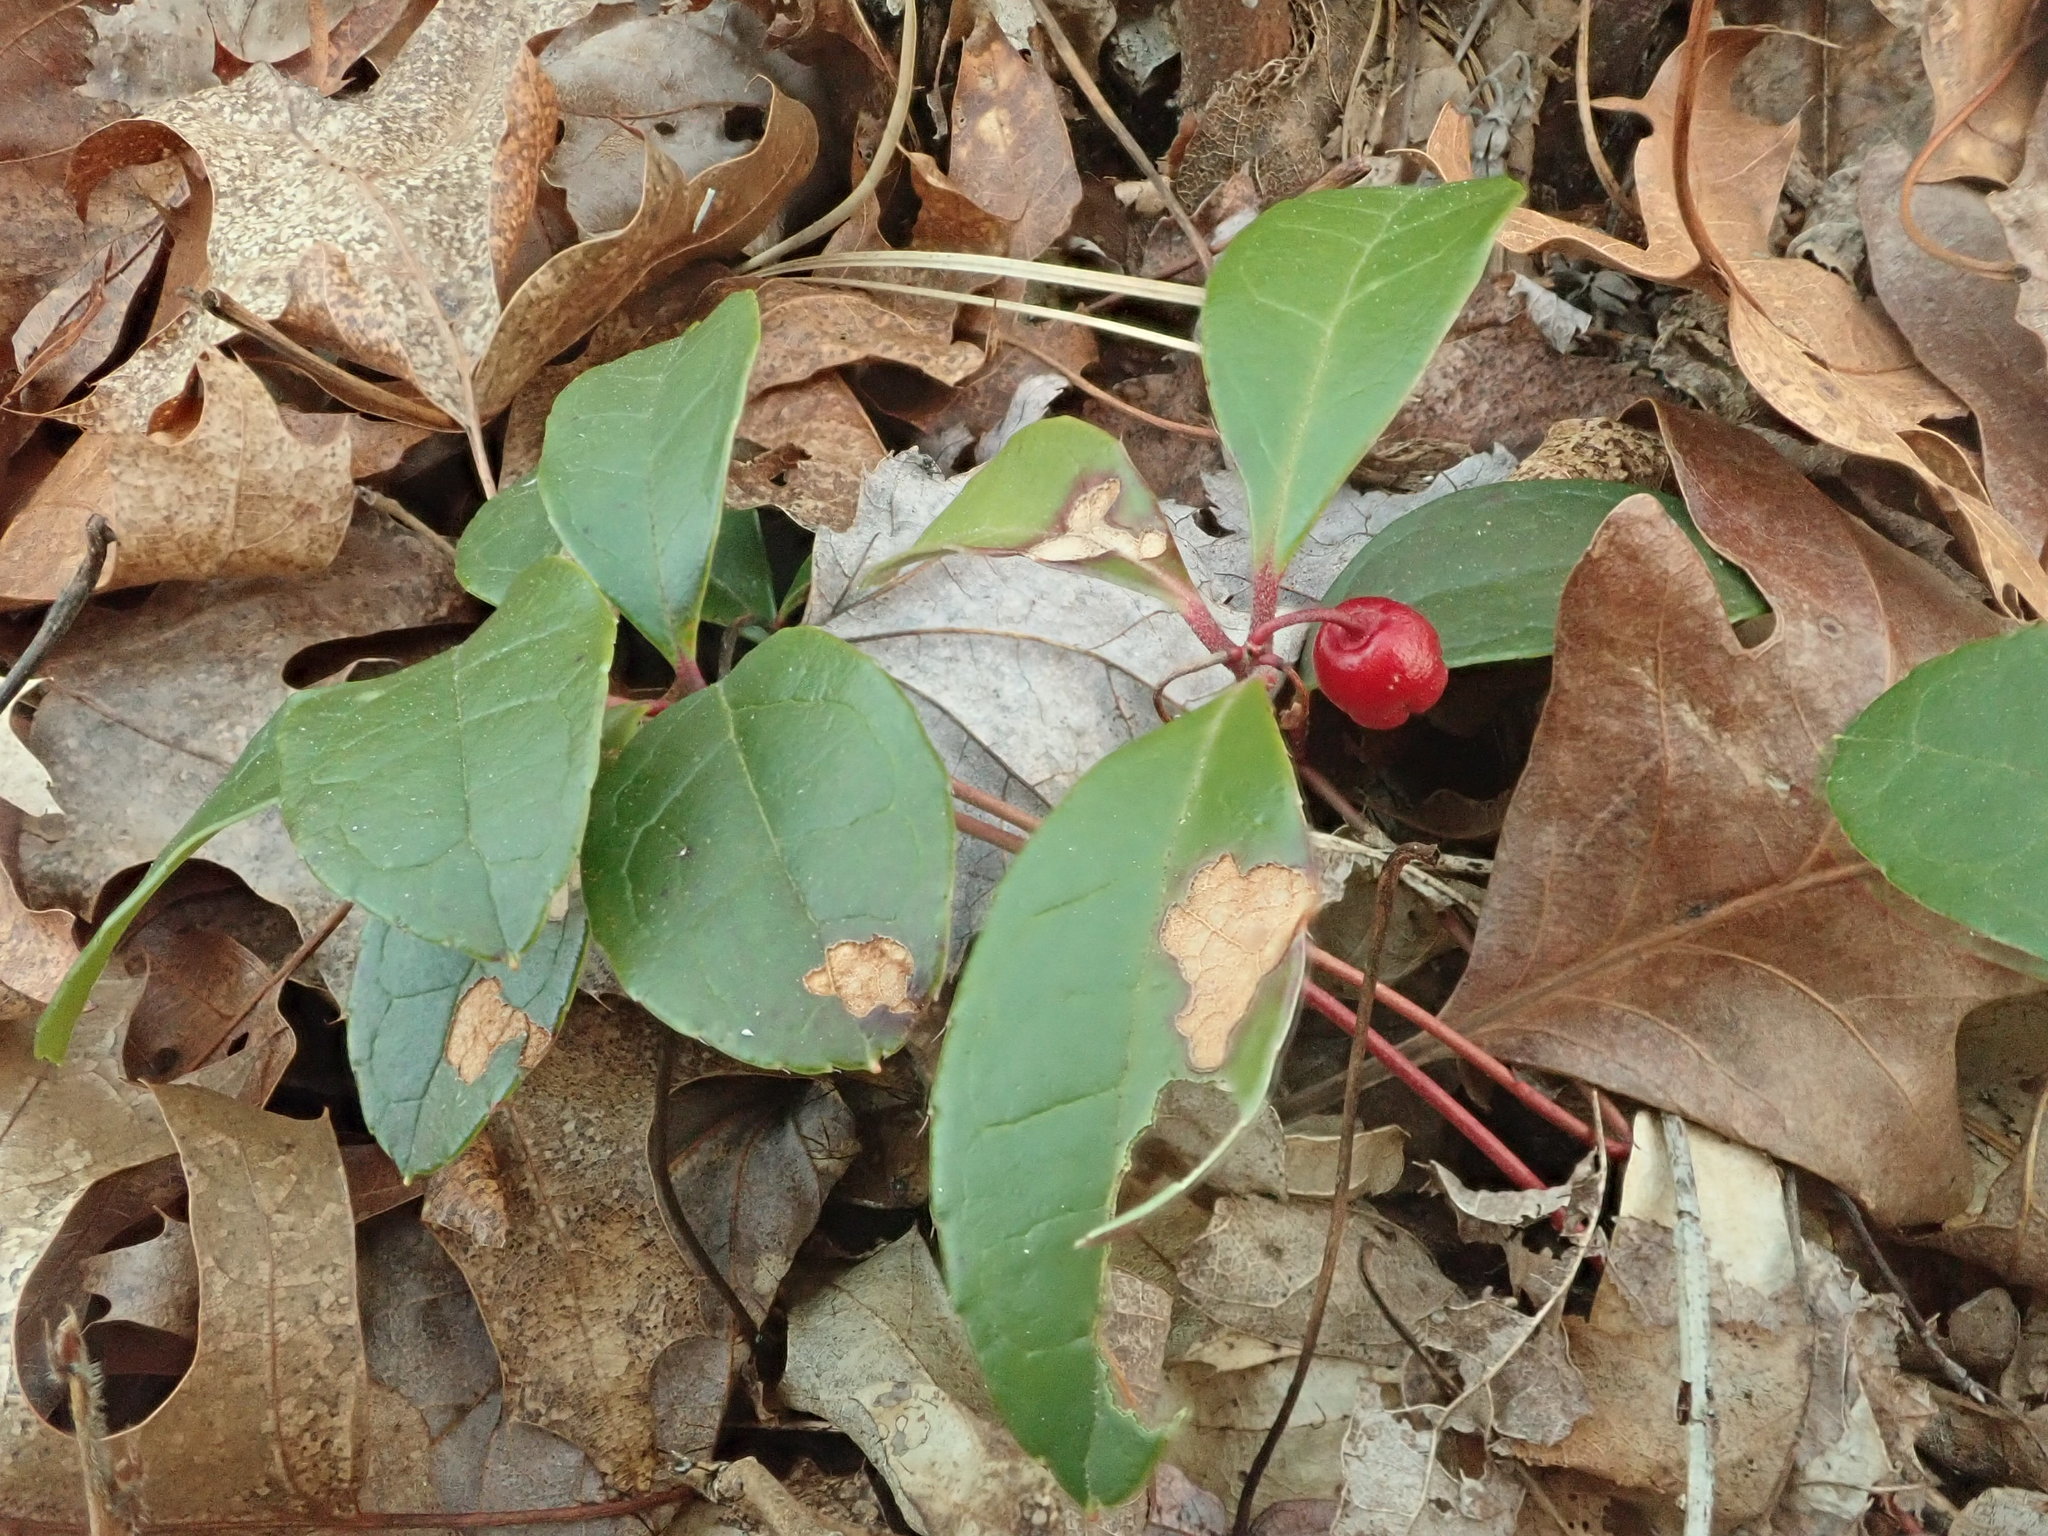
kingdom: Plantae
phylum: Tracheophyta
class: Magnoliopsida
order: Ericales
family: Ericaceae
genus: Gaultheria
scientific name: Gaultheria procumbens
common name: Checkerberry
